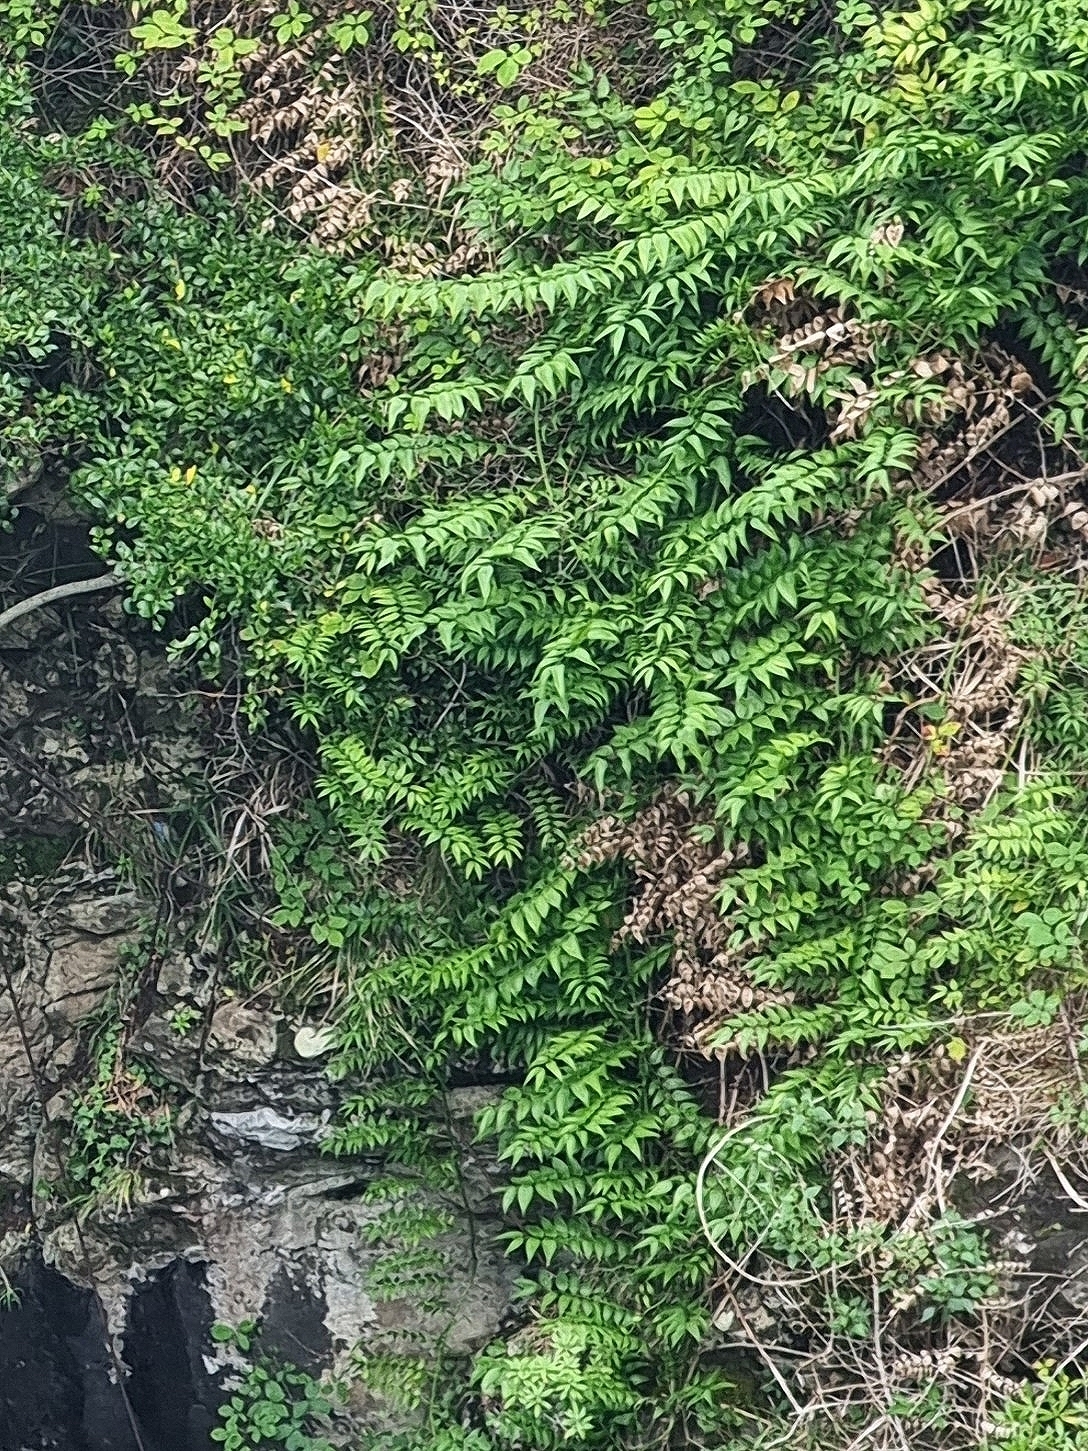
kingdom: Plantae
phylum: Tracheophyta
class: Liliopsida
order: Asparagales
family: Asparagaceae
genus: Semele
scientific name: Semele androgyna
